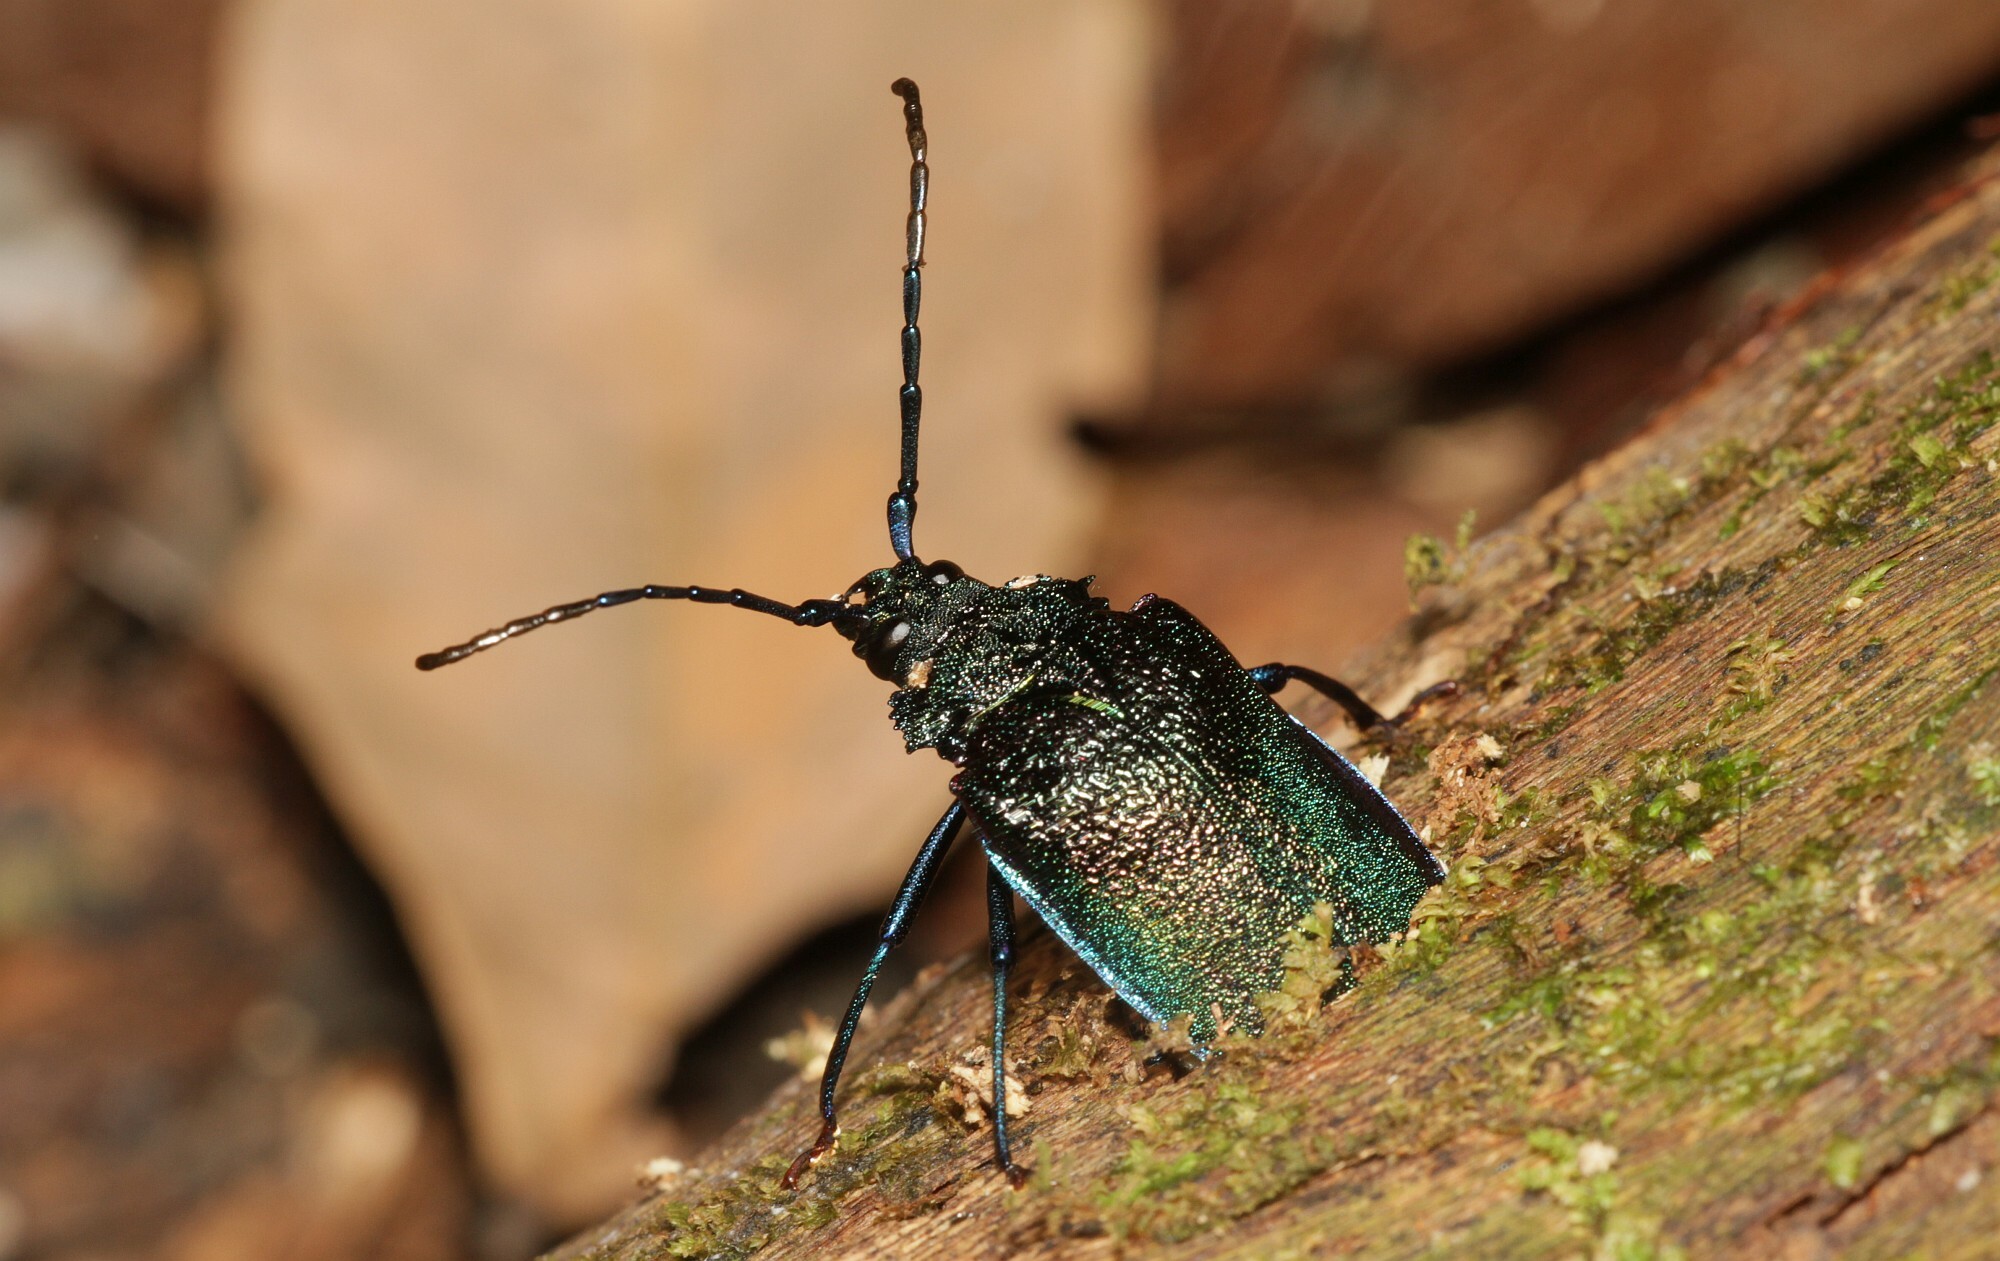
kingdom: Animalia
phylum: Arthropoda
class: Insecta
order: Coleoptera
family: Cerambycidae
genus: Hileolaspis
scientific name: Hileolaspis auratus
